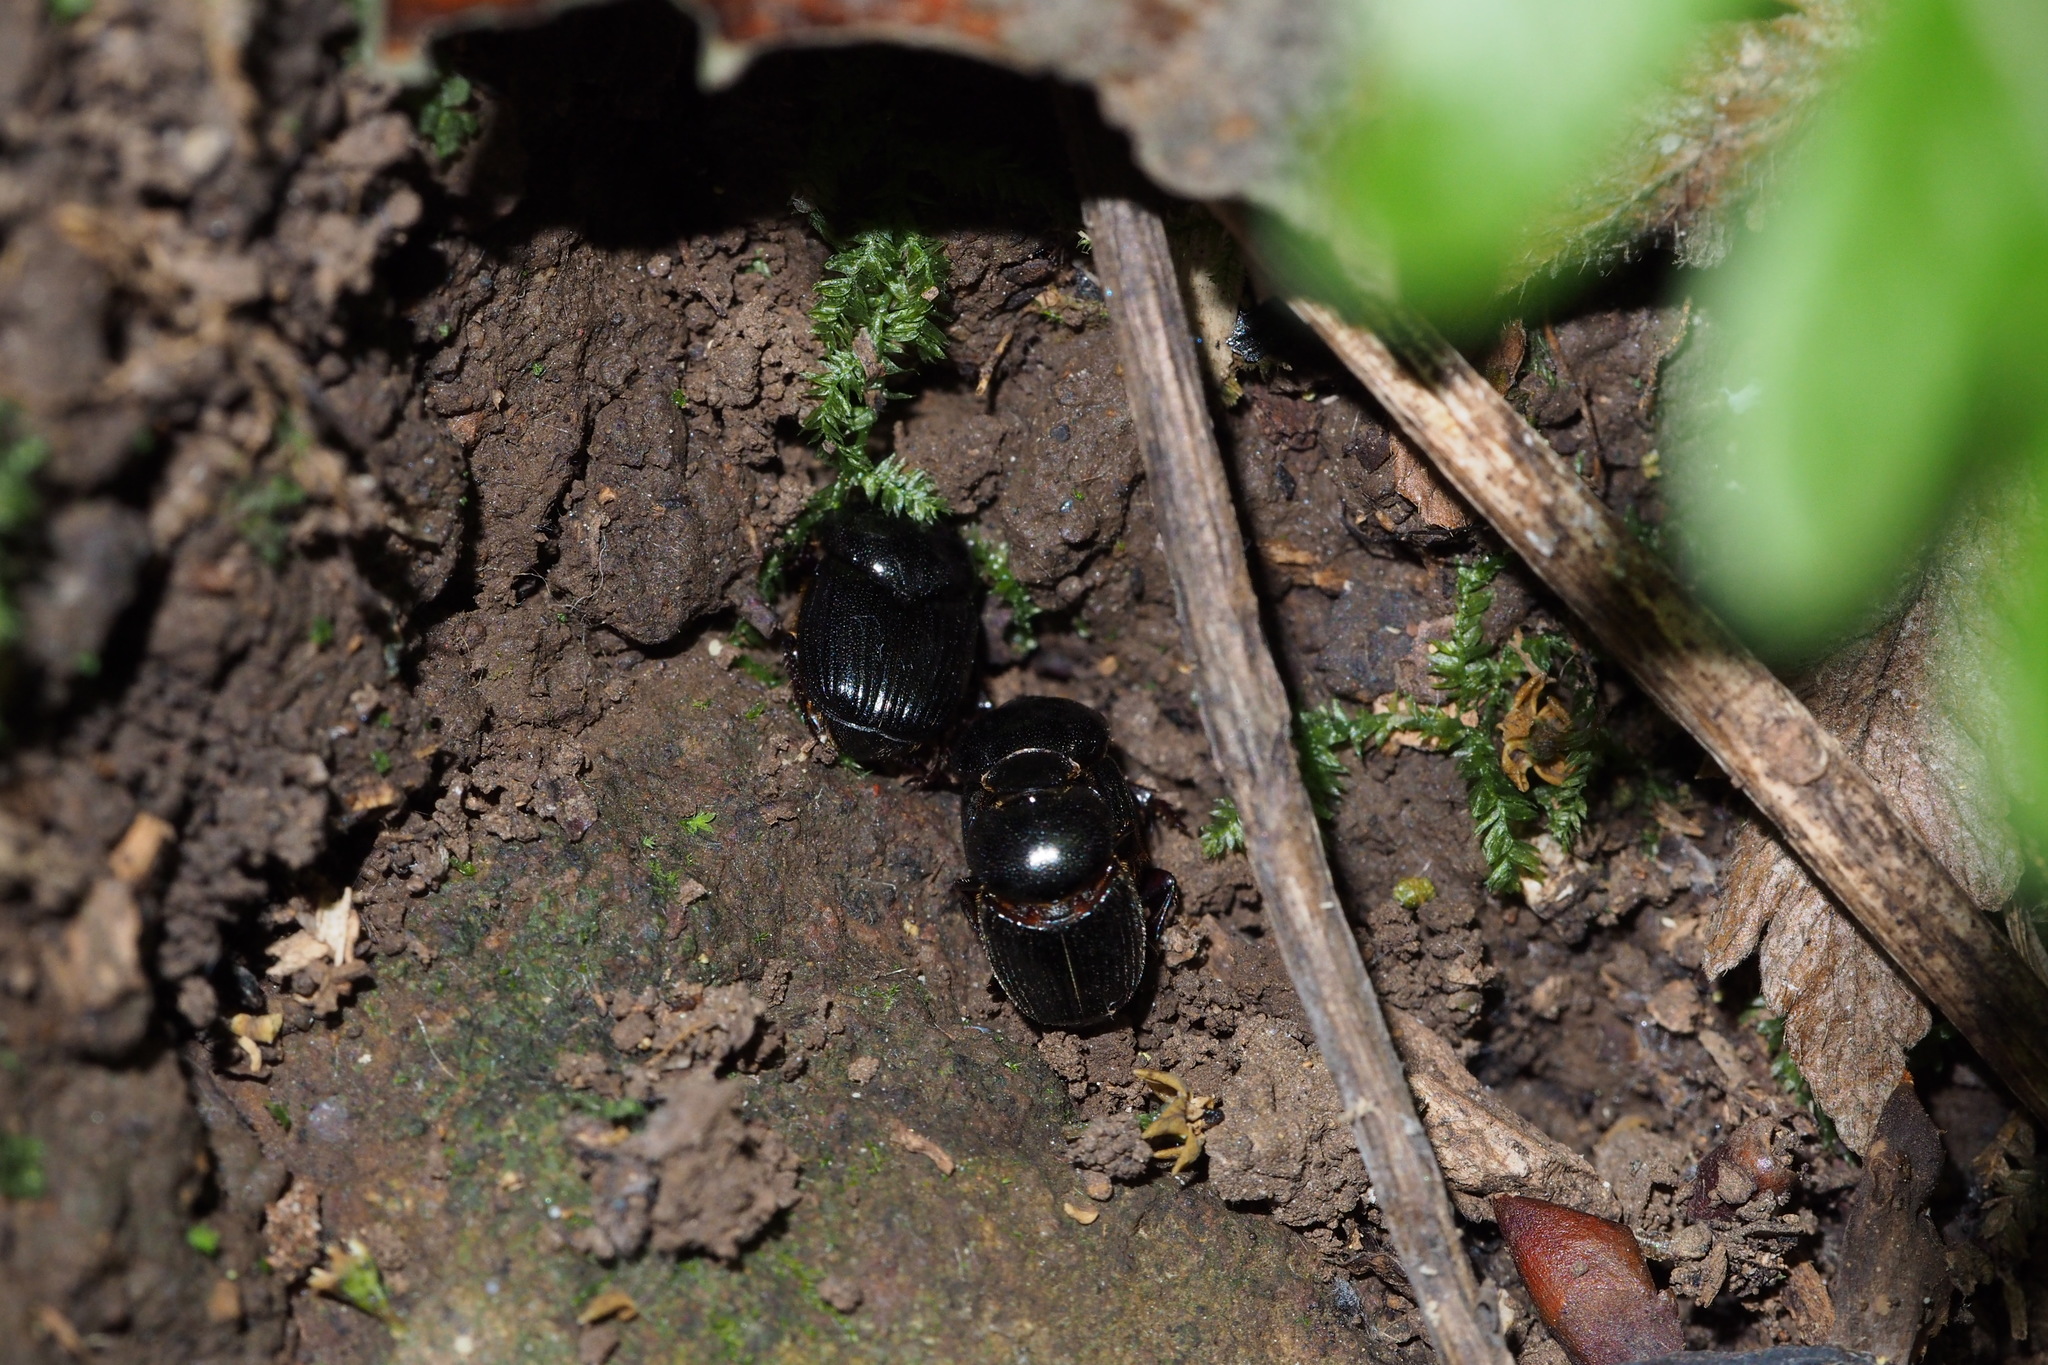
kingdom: Animalia
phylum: Arthropoda
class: Insecta
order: Coleoptera
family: Scarabaeidae
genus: Parascatonomus
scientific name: Parascatonomus nitidus
